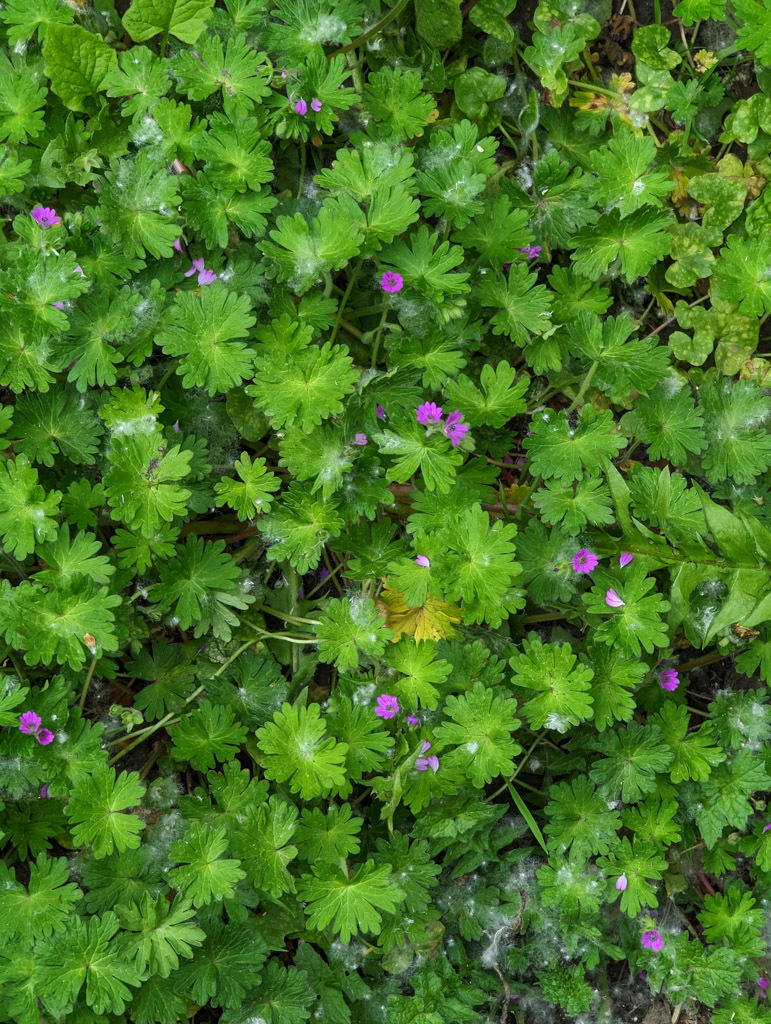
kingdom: Plantae
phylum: Tracheophyta
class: Magnoliopsida
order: Geraniales
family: Geraniaceae
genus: Geranium
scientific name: Geranium molle
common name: Dove's-foot crane's-bill
